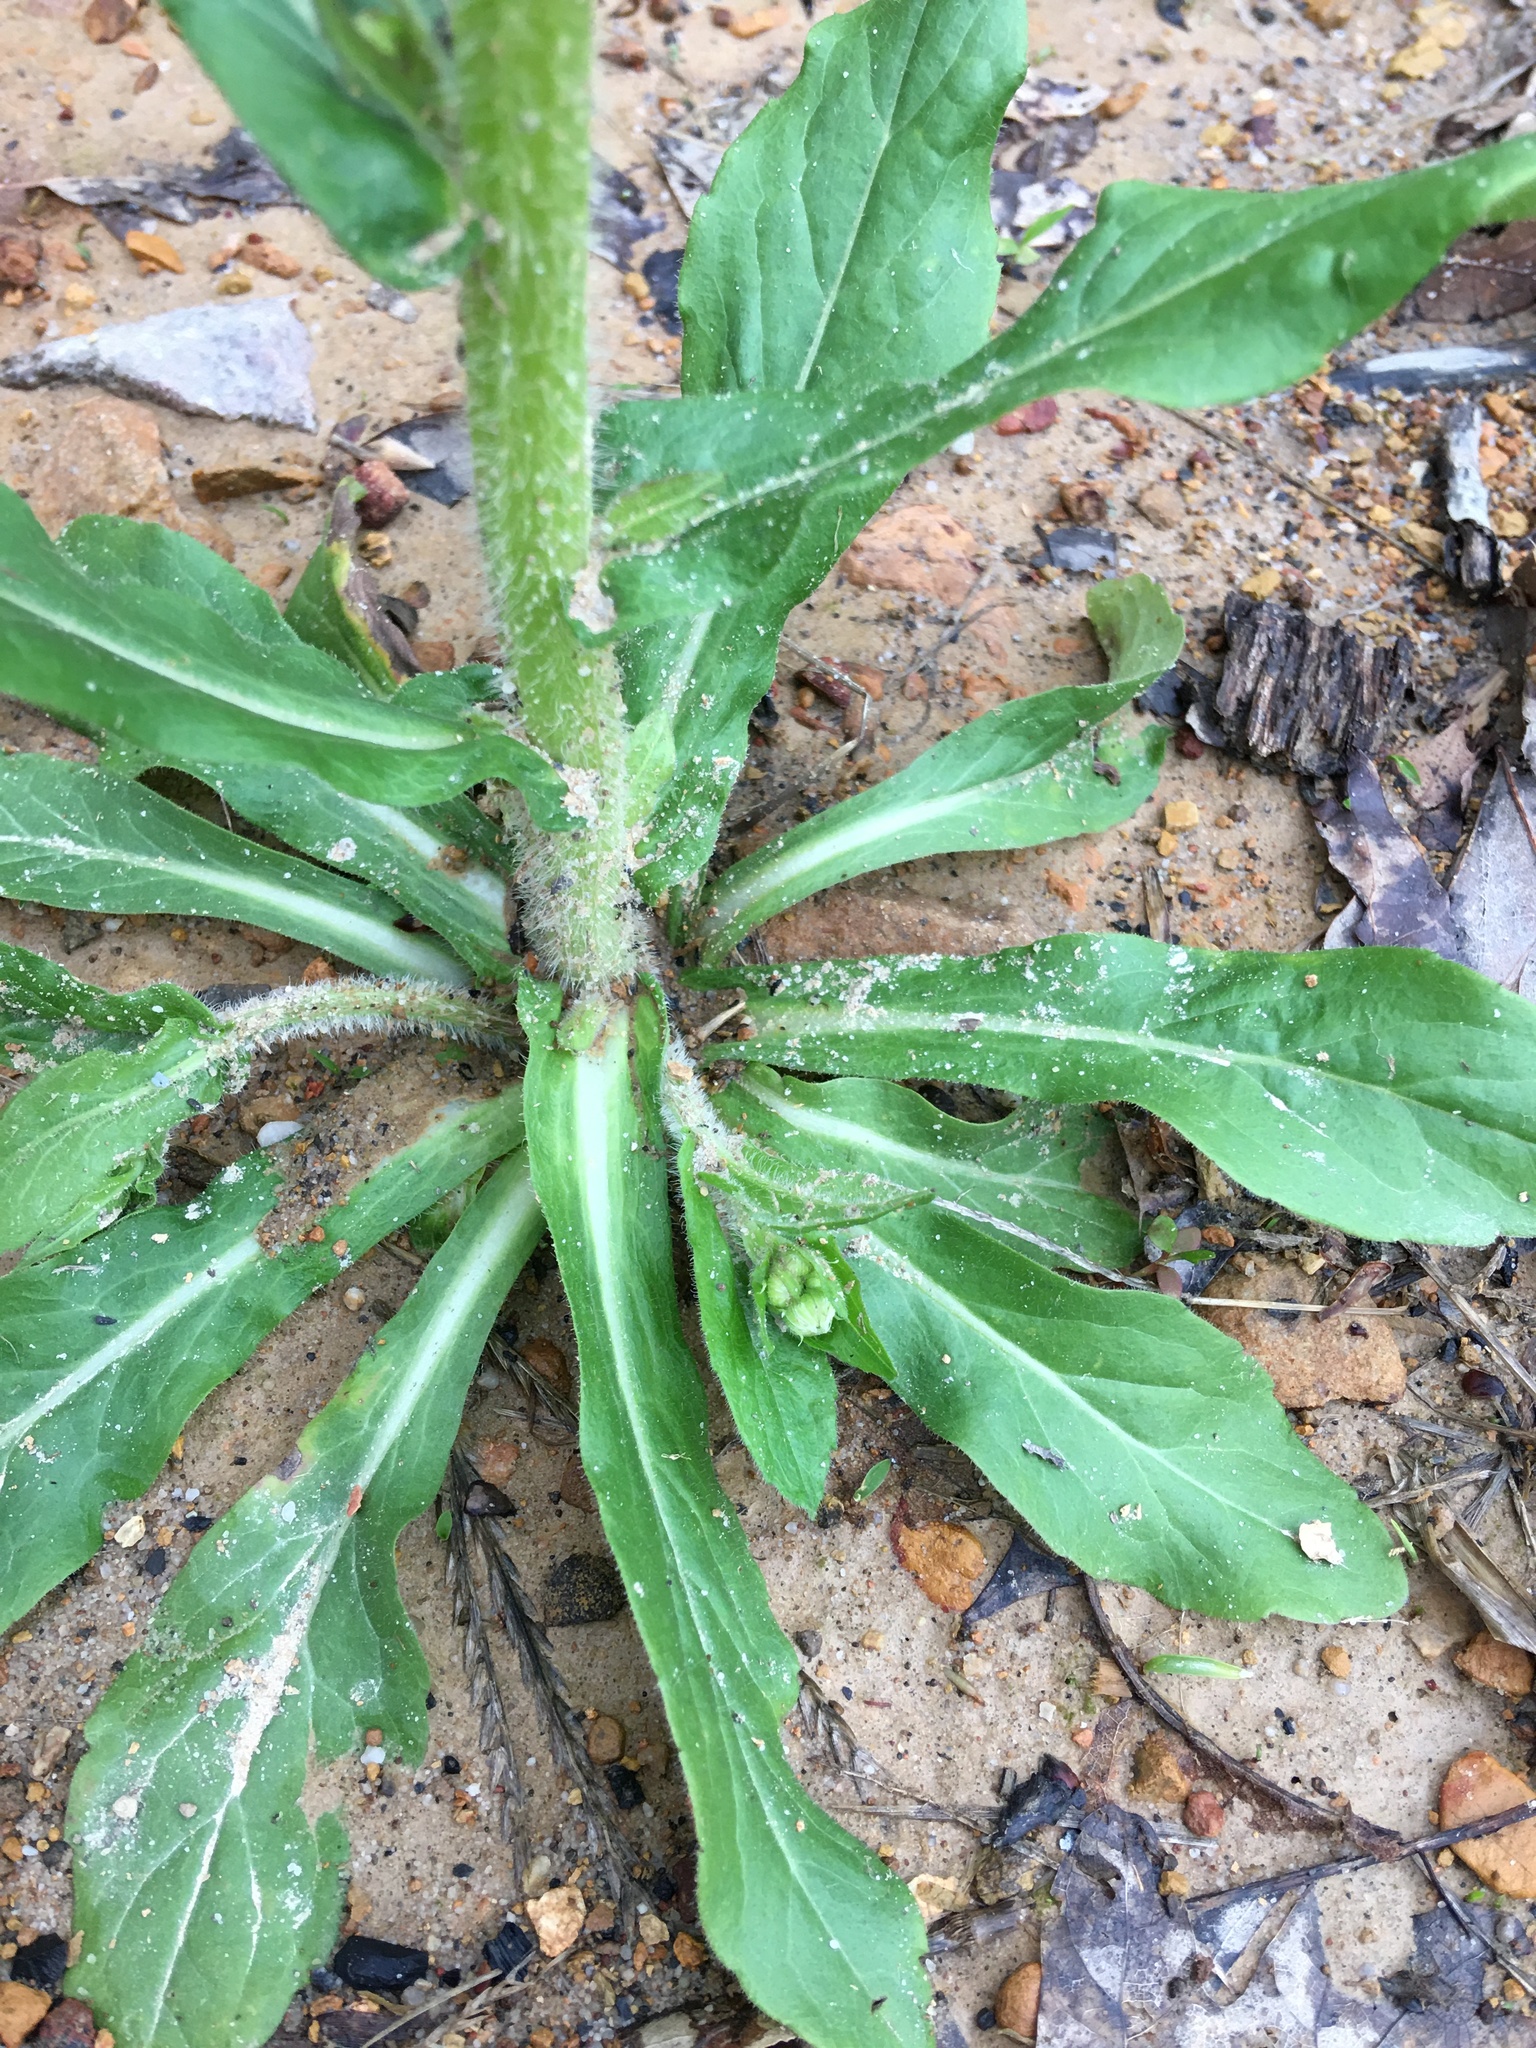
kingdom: Plantae
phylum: Tracheophyta
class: Magnoliopsida
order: Asterales
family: Asteraceae
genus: Erigeron
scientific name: Erigeron philadelphicus
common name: Robin's-plantain
